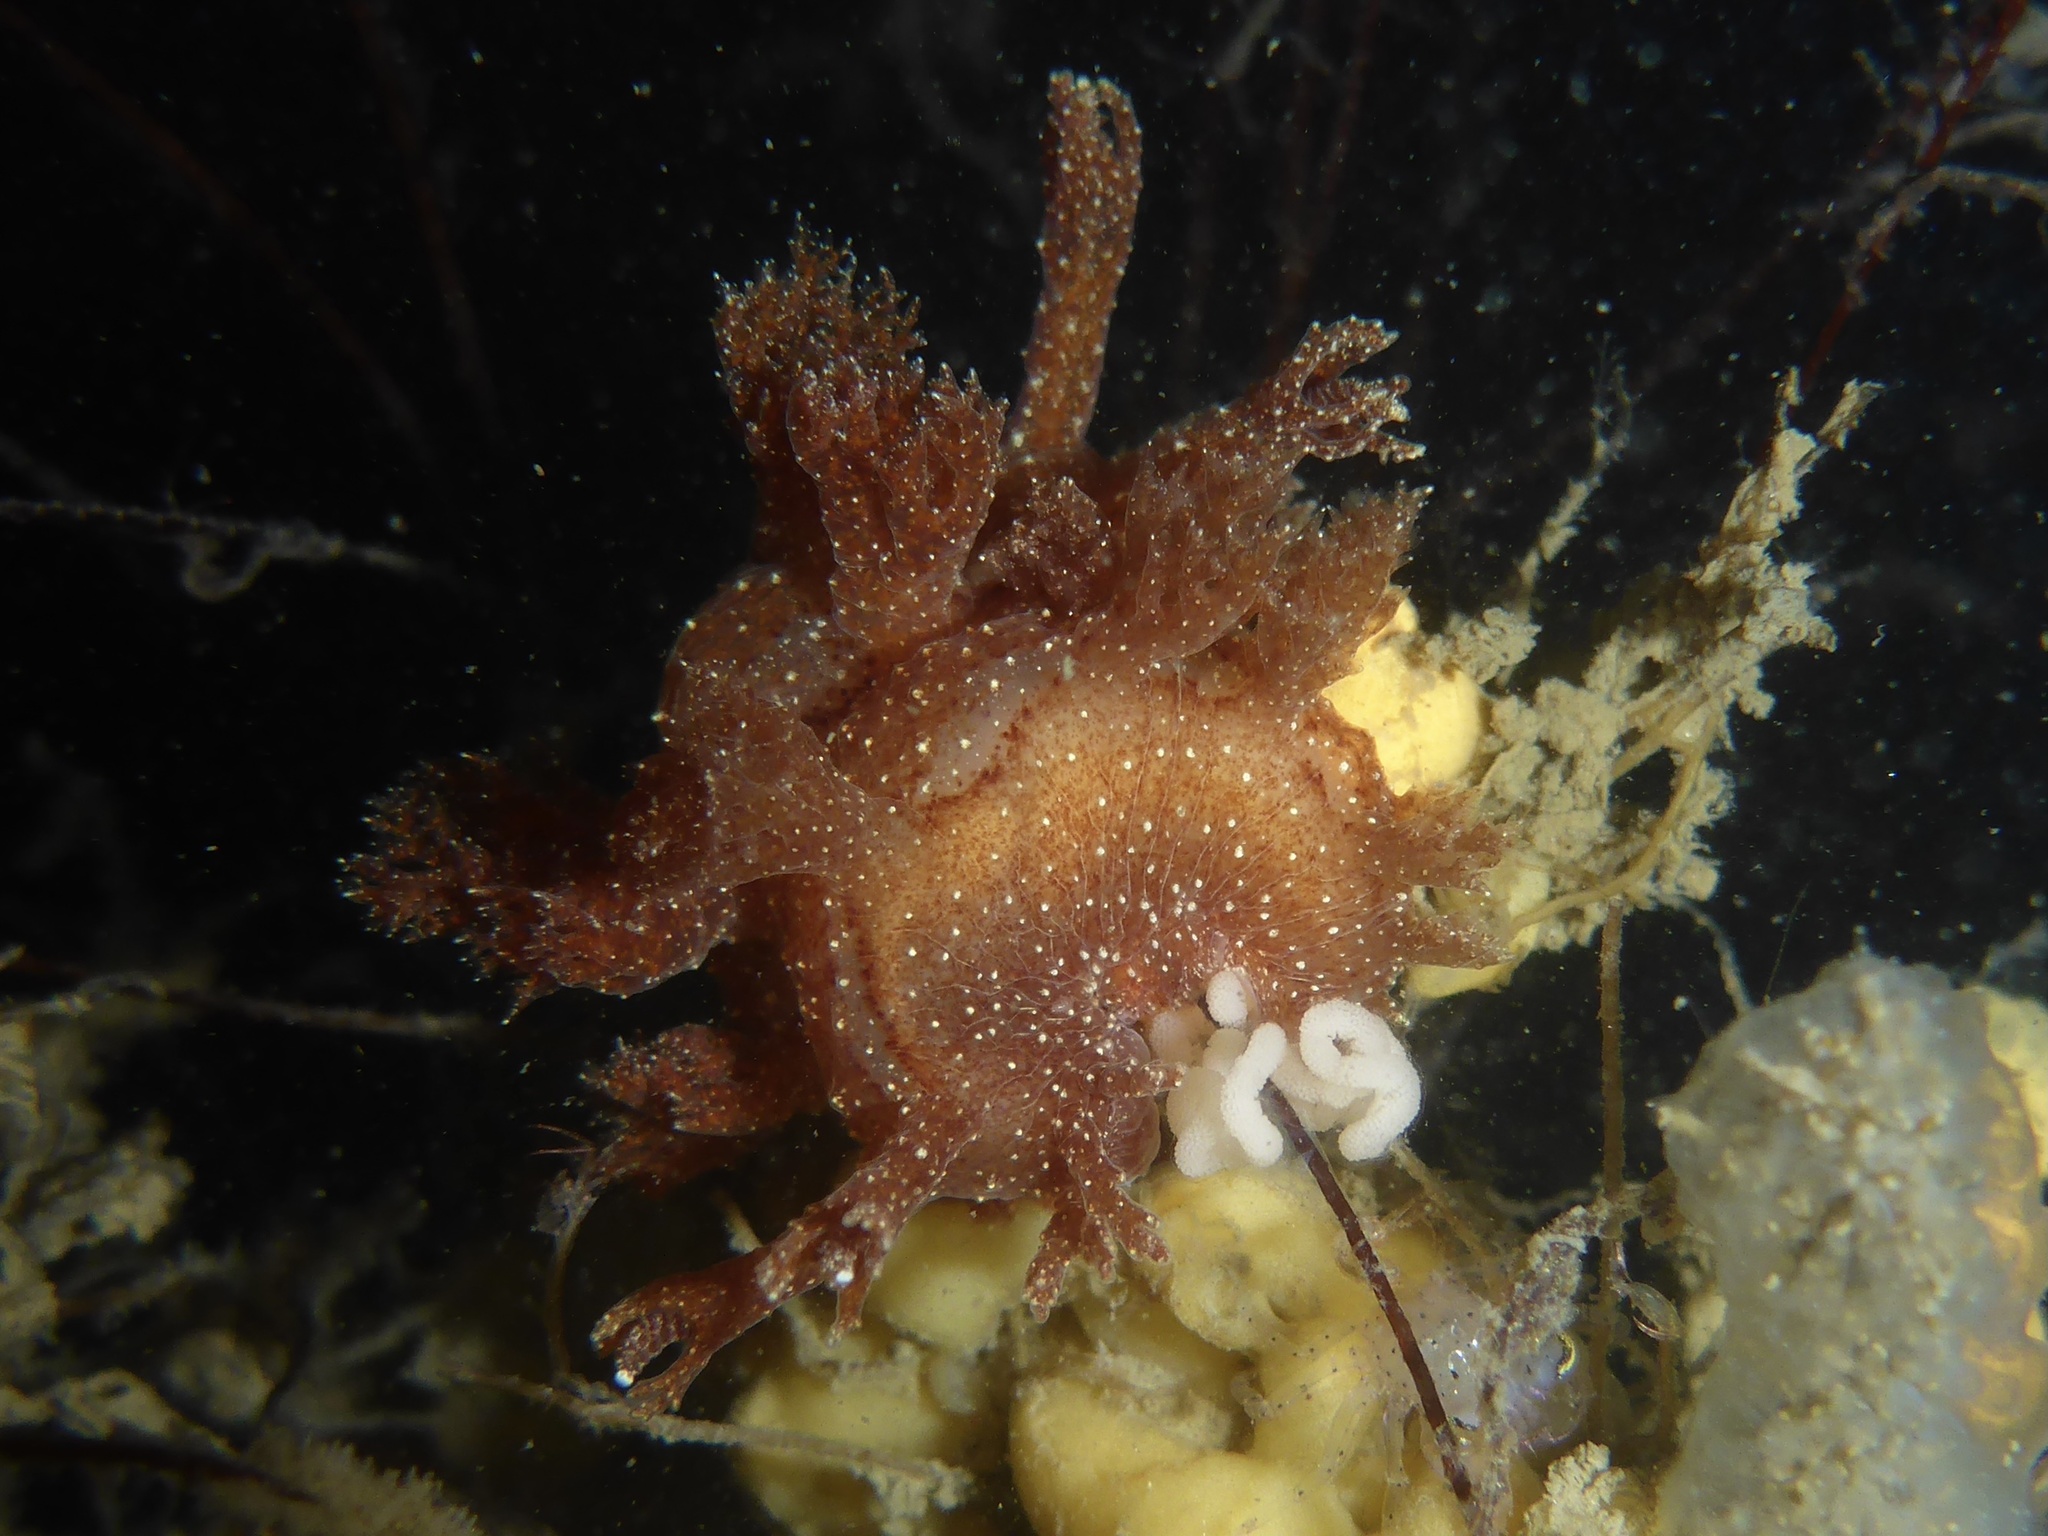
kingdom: Animalia
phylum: Mollusca
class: Gastropoda
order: Nudibranchia
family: Dendronotidae
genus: Dendronotus
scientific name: Dendronotus subramosus
